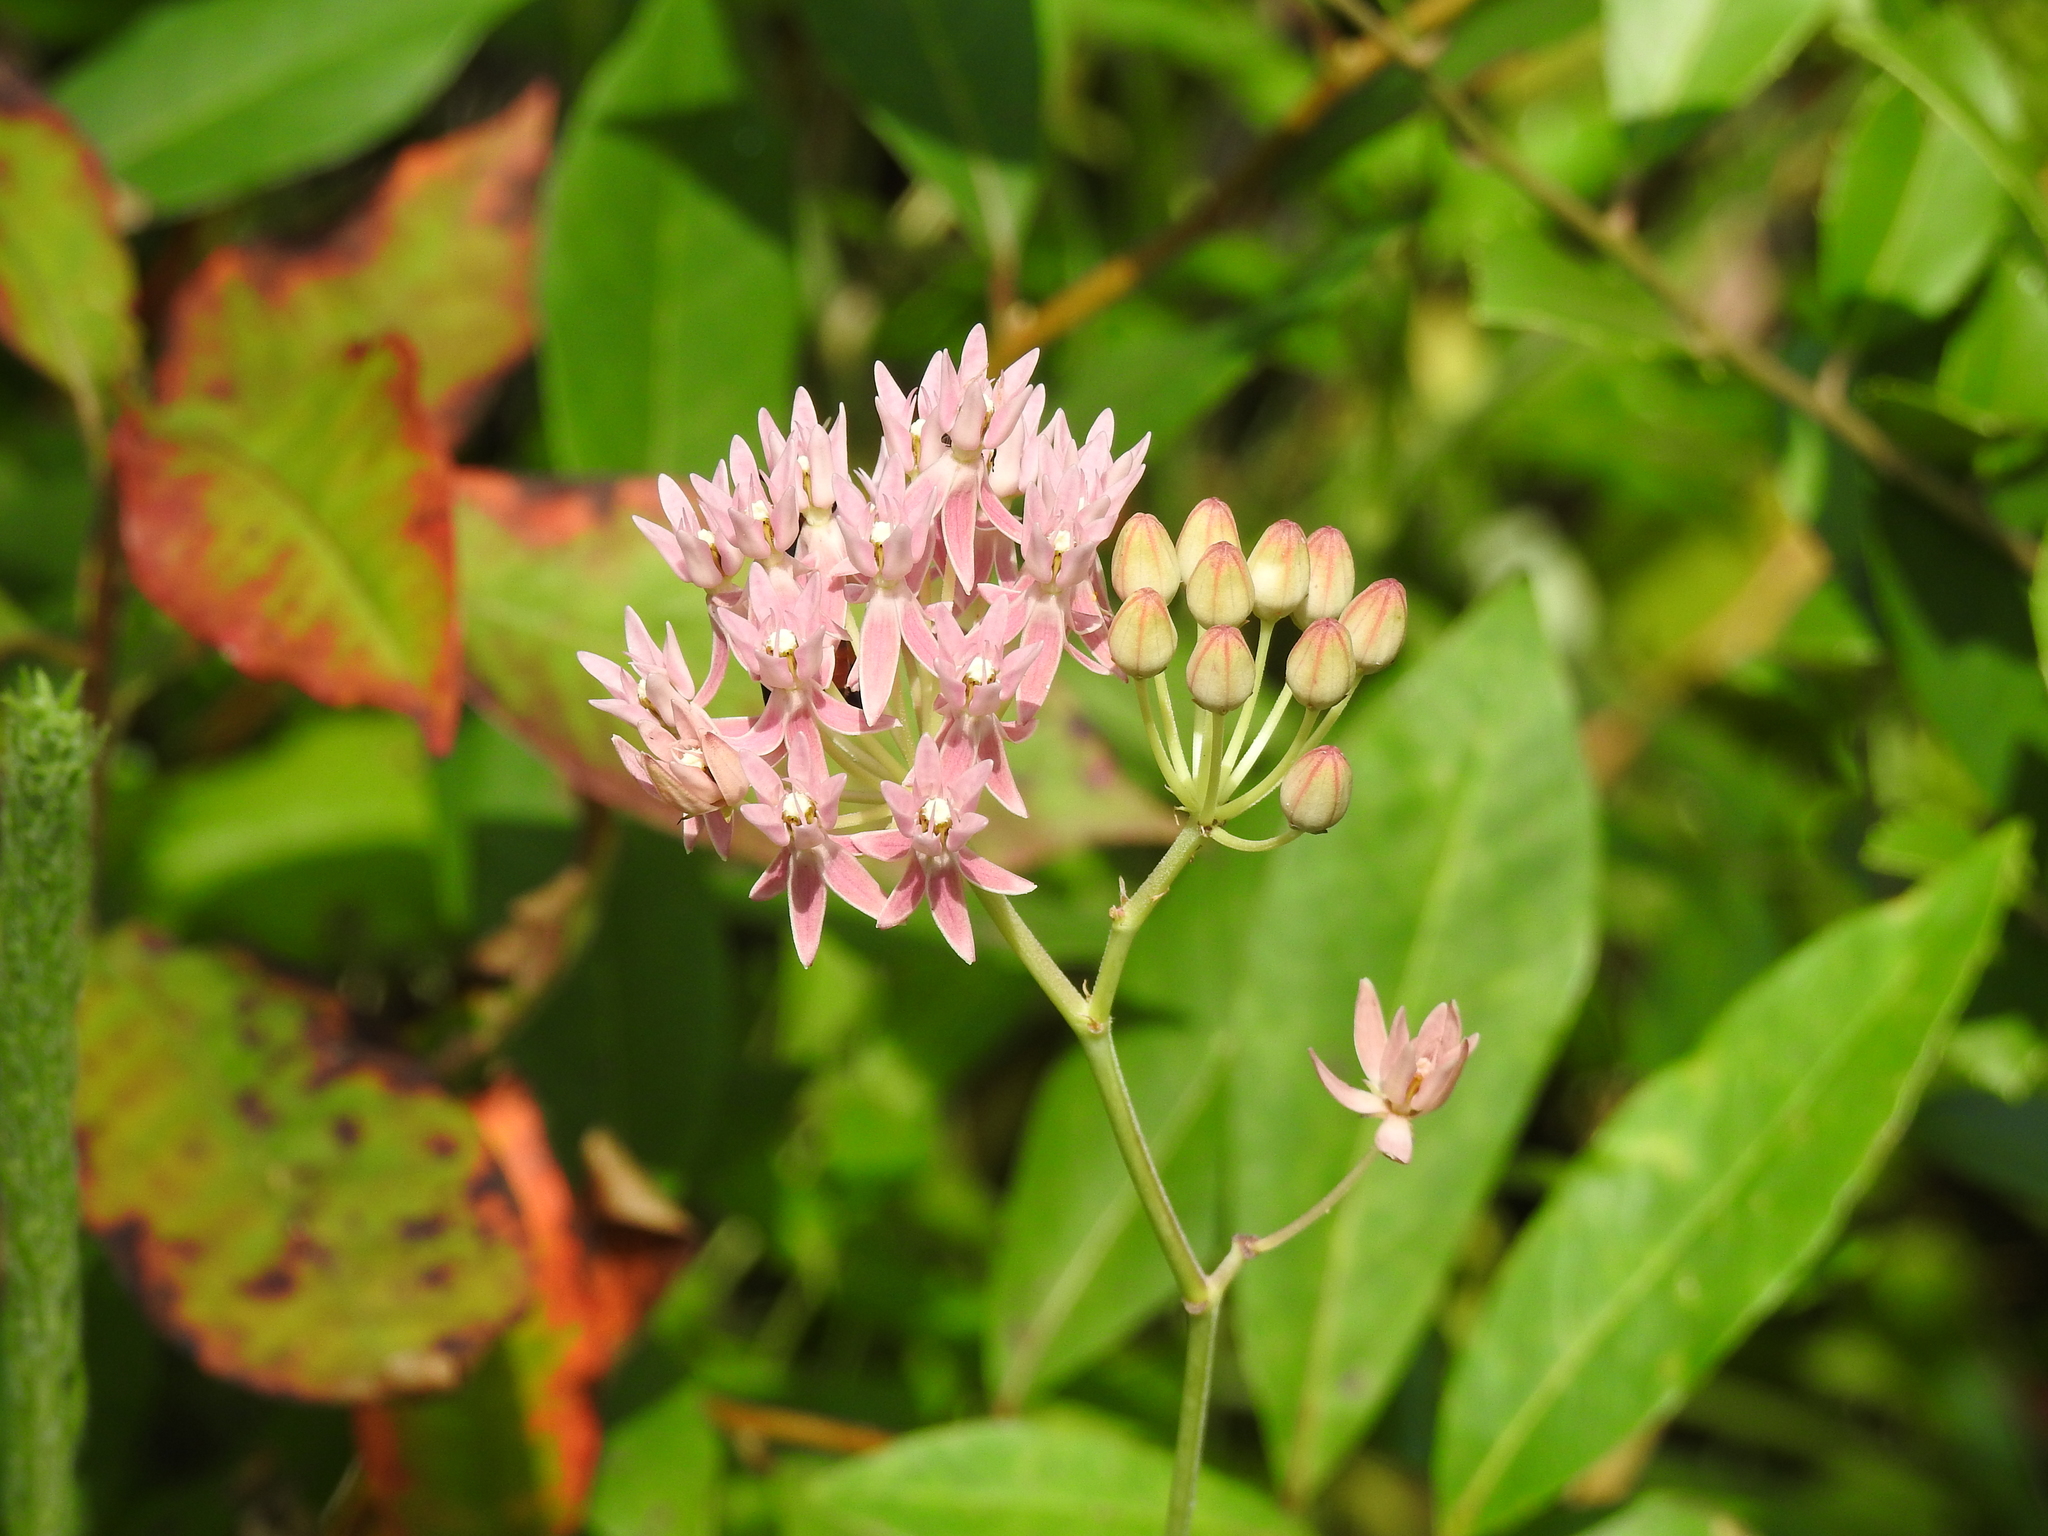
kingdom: Plantae
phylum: Tracheophyta
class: Magnoliopsida
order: Gentianales
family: Apocynaceae
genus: Asclepias
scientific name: Asclepias rubra
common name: Red milkweed
